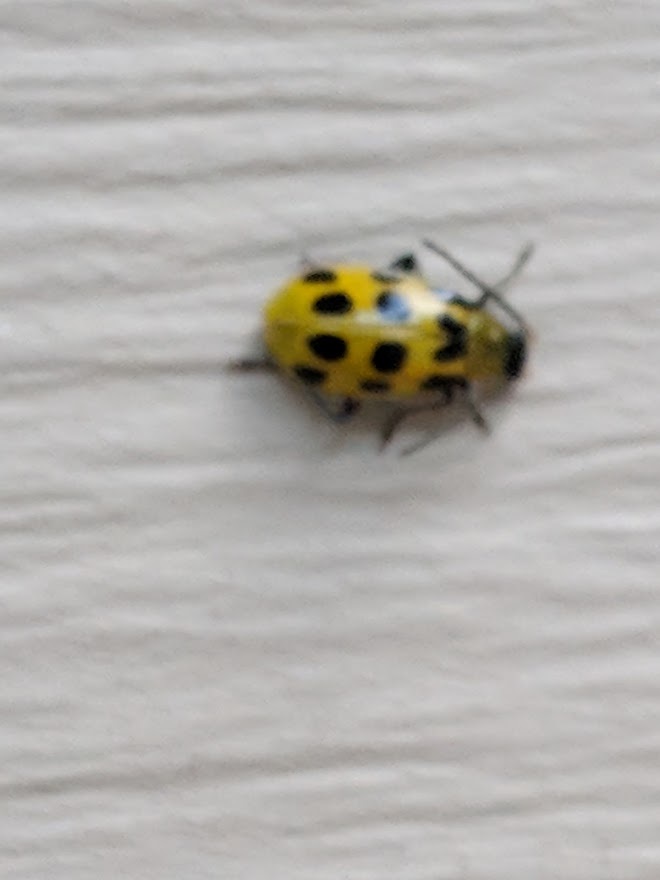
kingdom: Animalia
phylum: Arthropoda
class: Insecta
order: Coleoptera
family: Chrysomelidae
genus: Diabrotica
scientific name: Diabrotica undecimpunctata
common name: Spotted cucumber beetle
